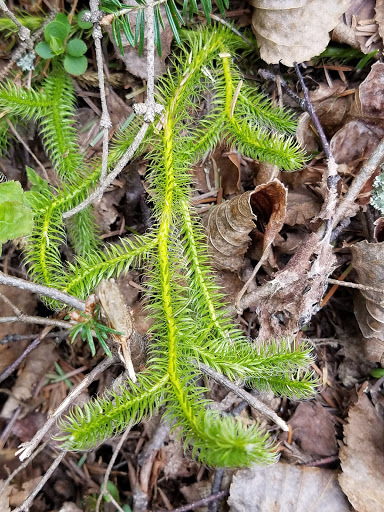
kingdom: Plantae
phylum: Tracheophyta
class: Lycopodiopsida
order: Lycopodiales
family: Lycopodiaceae
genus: Lycopodium
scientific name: Lycopodium clavatum
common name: Stag's-horn clubmoss
